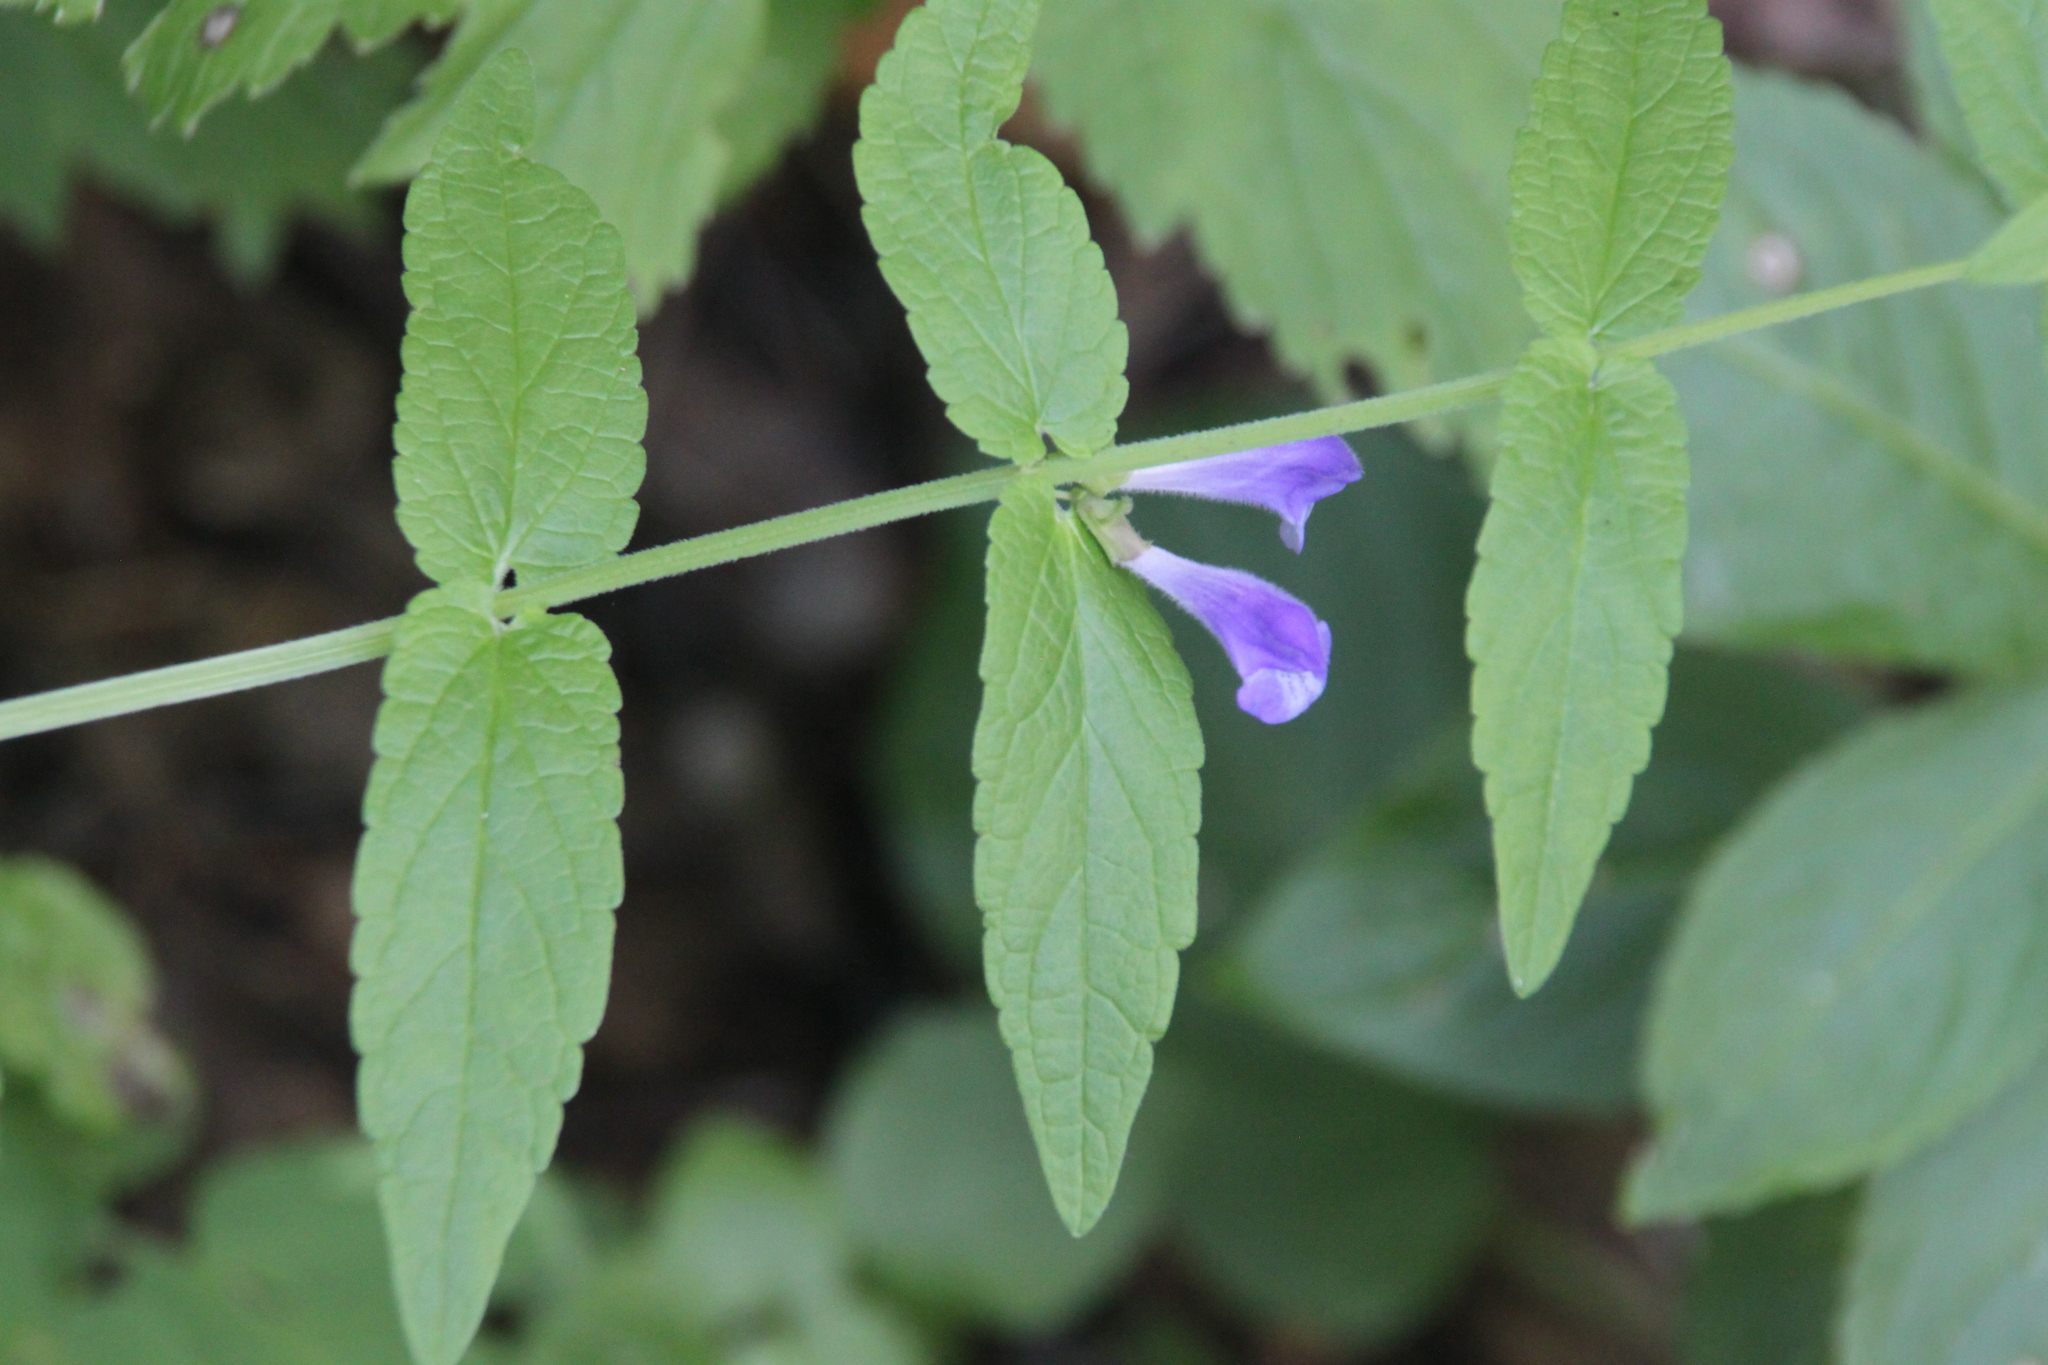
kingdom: Plantae
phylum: Tracheophyta
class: Magnoliopsida
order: Lamiales
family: Lamiaceae
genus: Scutellaria
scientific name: Scutellaria galericulata
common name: Skullcap
